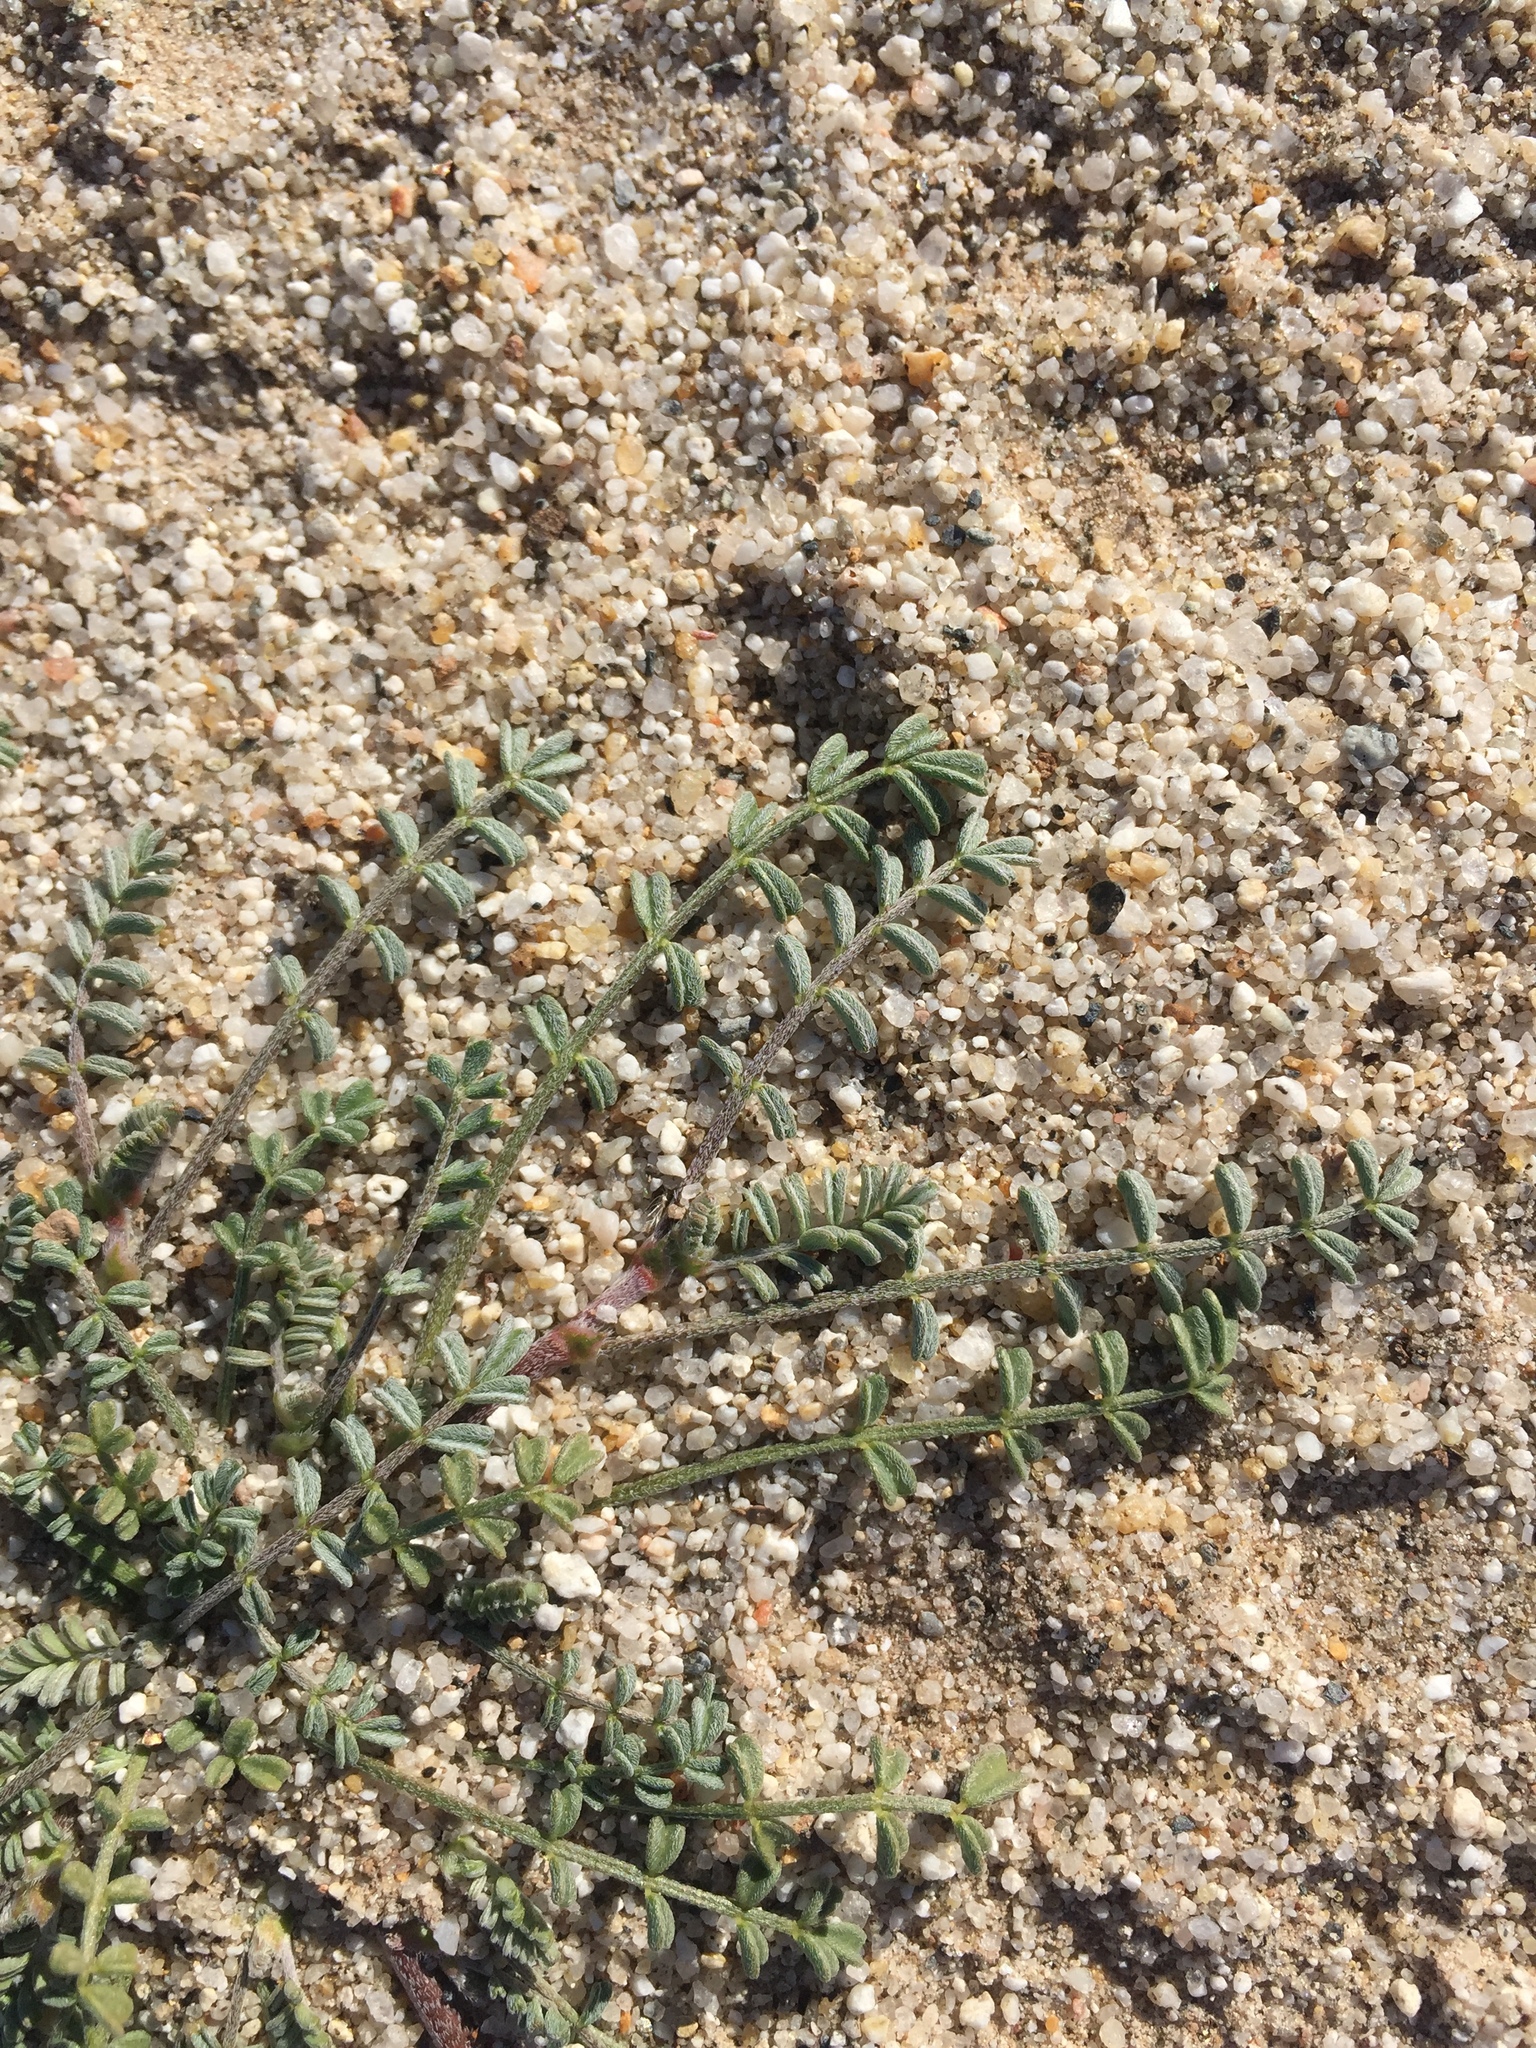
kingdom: Plantae
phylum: Tracheophyta
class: Magnoliopsida
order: Fabales
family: Fabaceae
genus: Astragalus
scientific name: Astragalus didymocarpus
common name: Dwarf white milkvetch
